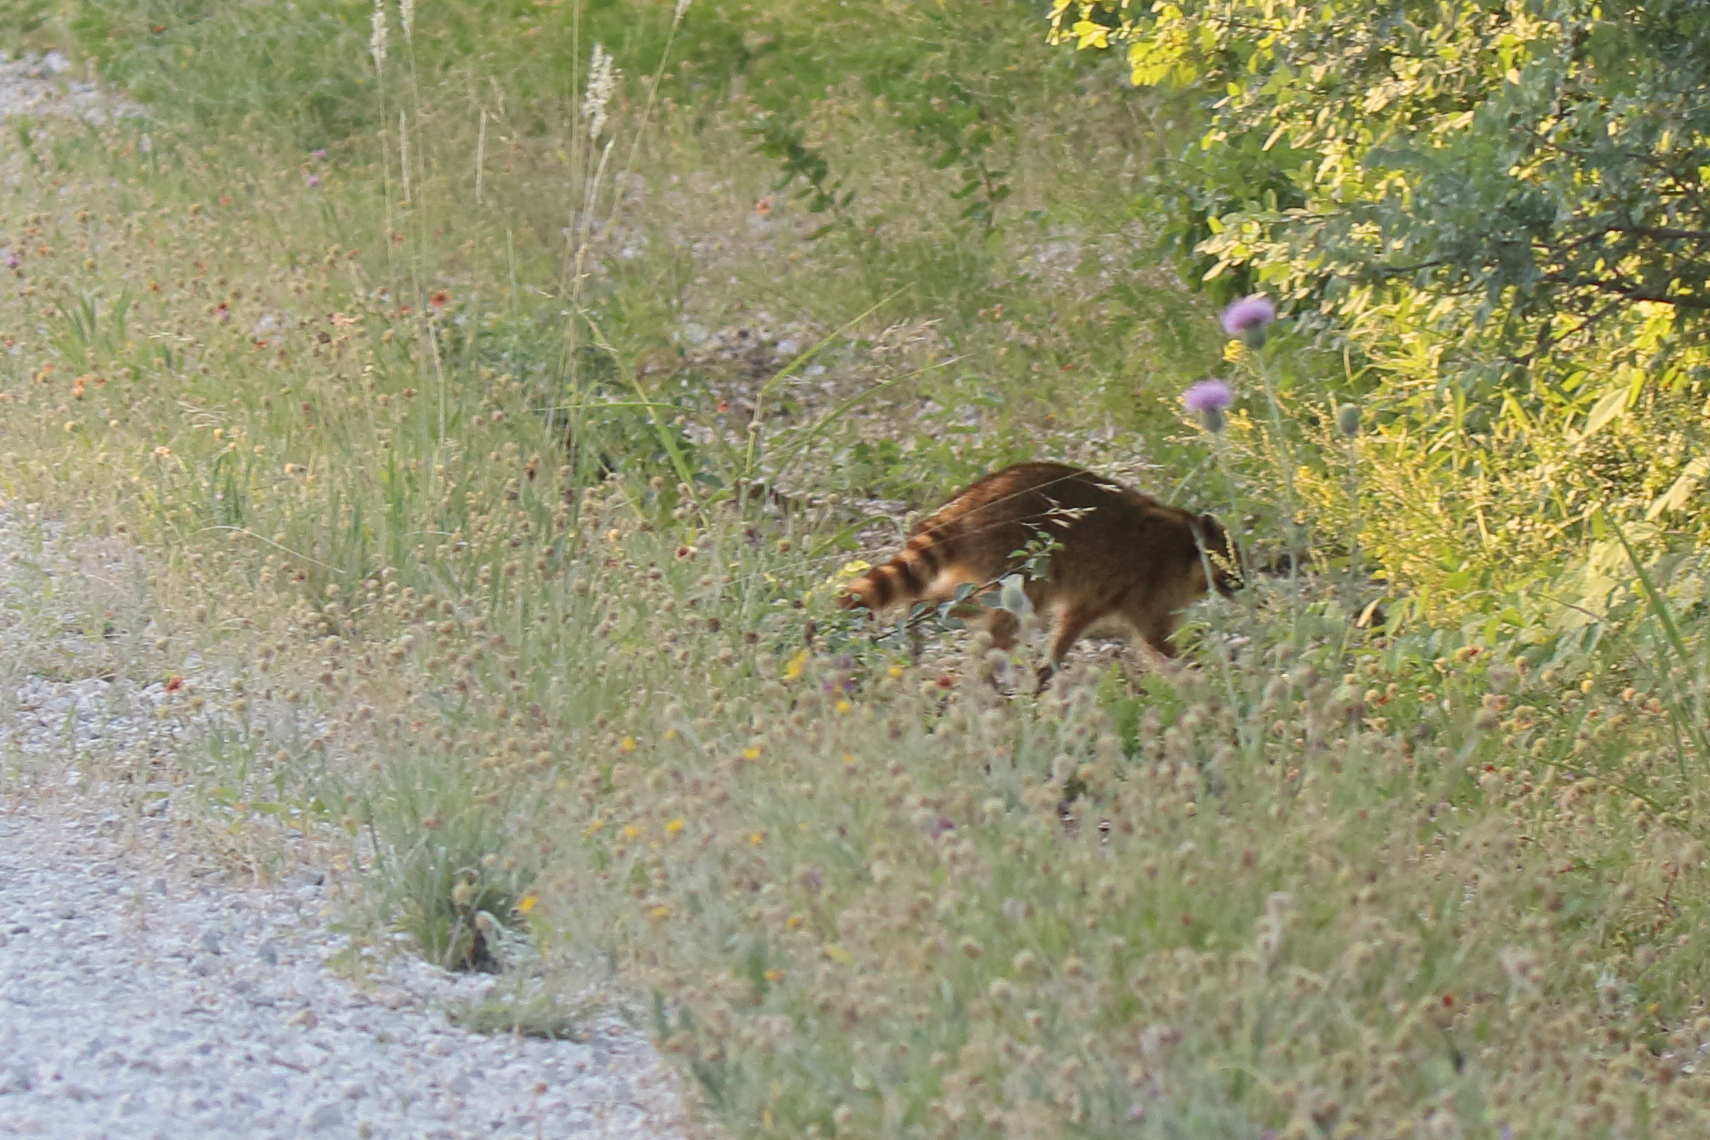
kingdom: Animalia
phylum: Chordata
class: Mammalia
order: Carnivora
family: Procyonidae
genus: Procyon
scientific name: Procyon lotor
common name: Raccoon
